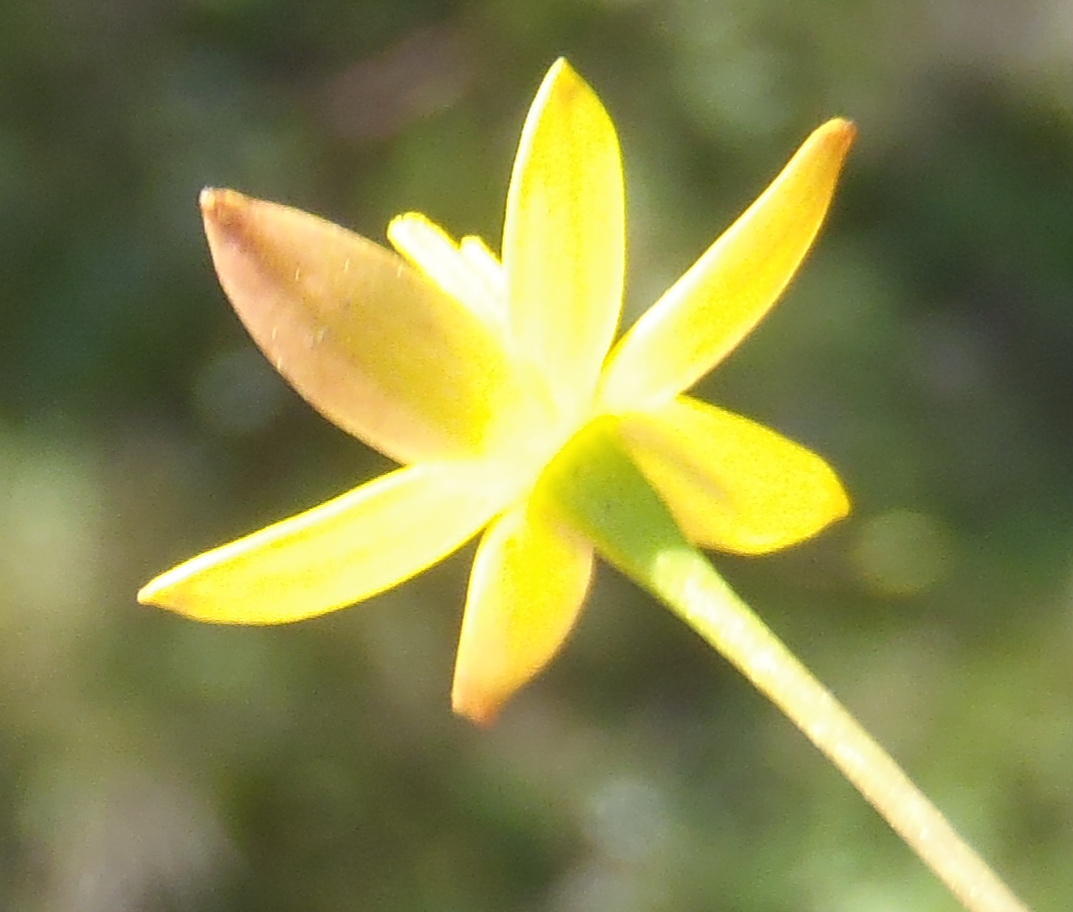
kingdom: Plantae
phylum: Tracheophyta
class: Liliopsida
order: Asparagales
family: Hypoxidaceae
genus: Pauridia
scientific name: Pauridia maryae
